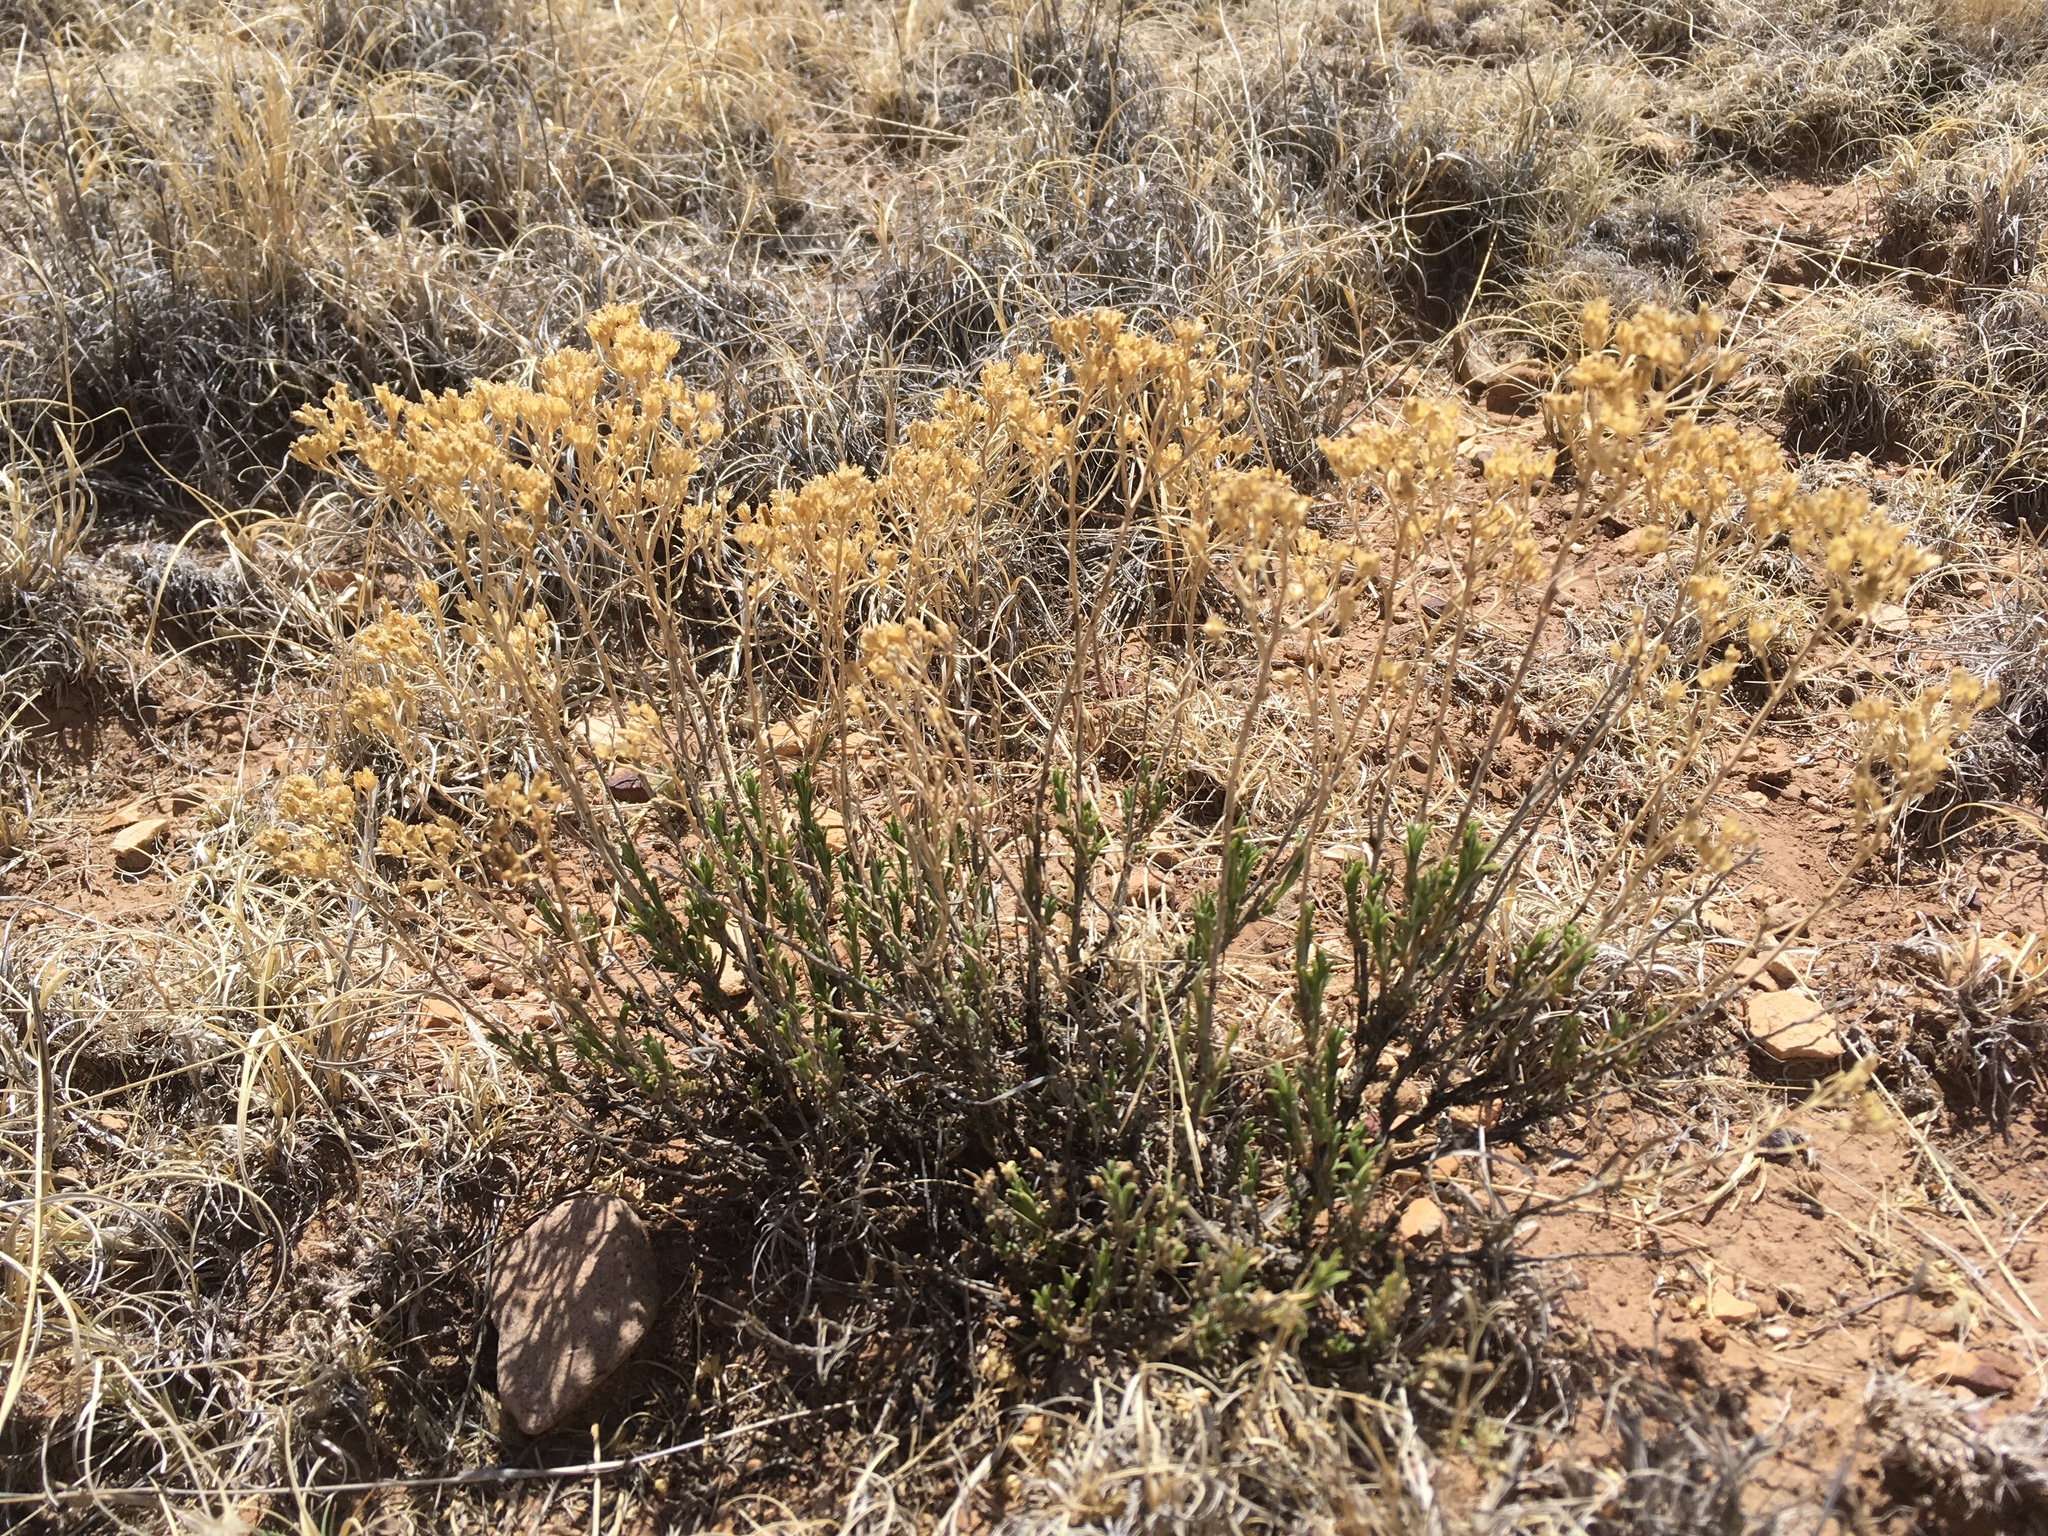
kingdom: Plantae
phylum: Tracheophyta
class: Magnoliopsida
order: Asterales
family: Asteraceae
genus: Gutierrezia
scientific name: Gutierrezia sarothrae
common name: Broom snakeweed
